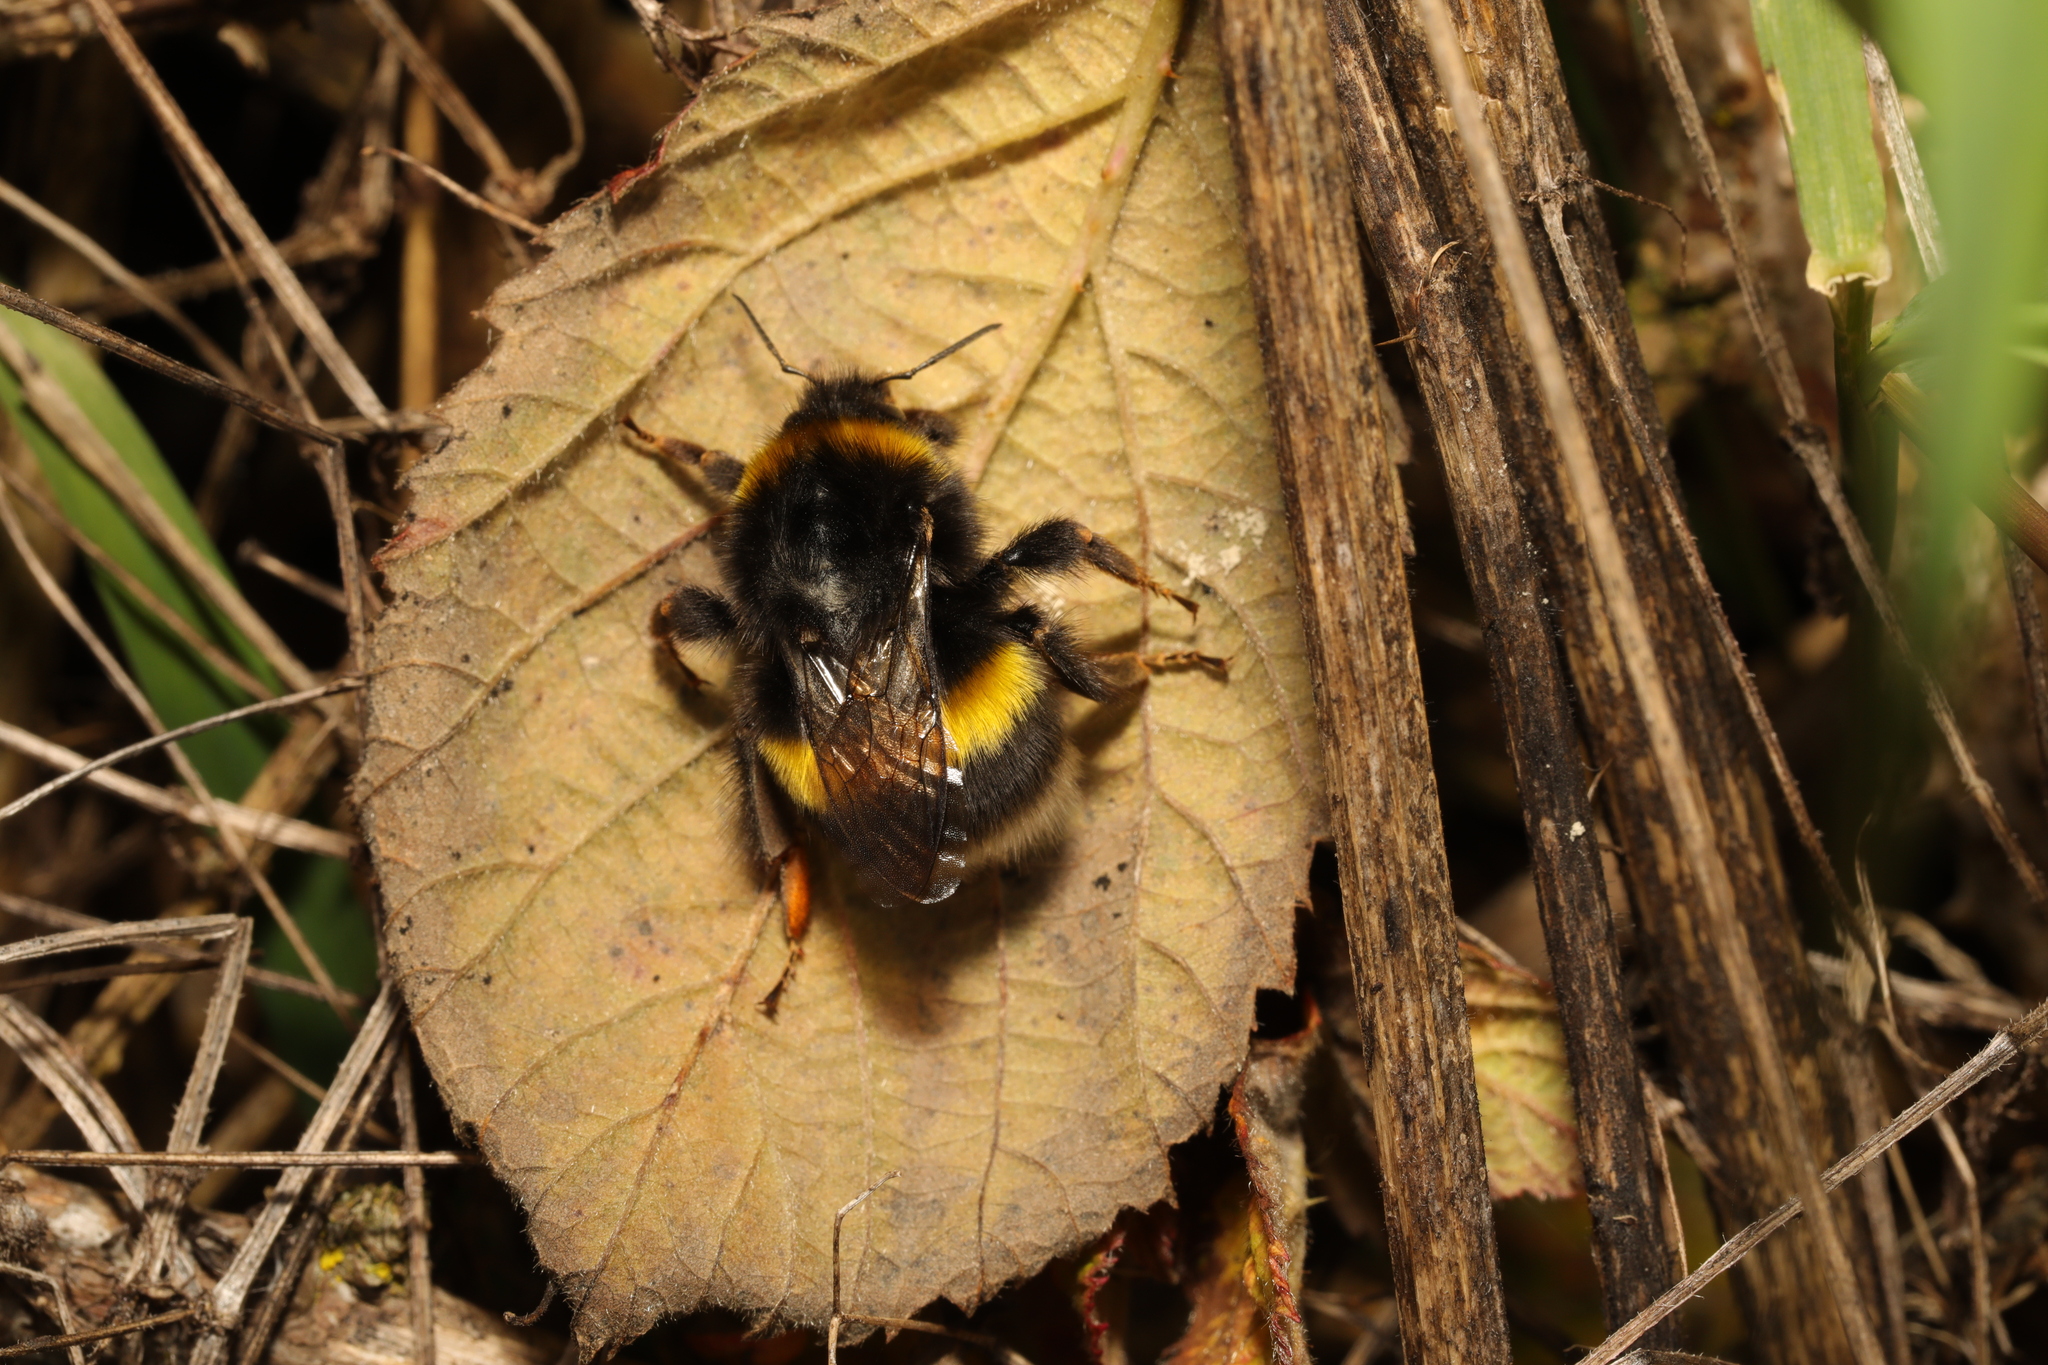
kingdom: Animalia
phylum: Arthropoda
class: Insecta
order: Hymenoptera
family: Apidae
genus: Bombus
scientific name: Bombus terrestris
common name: Buff-tailed bumblebee
